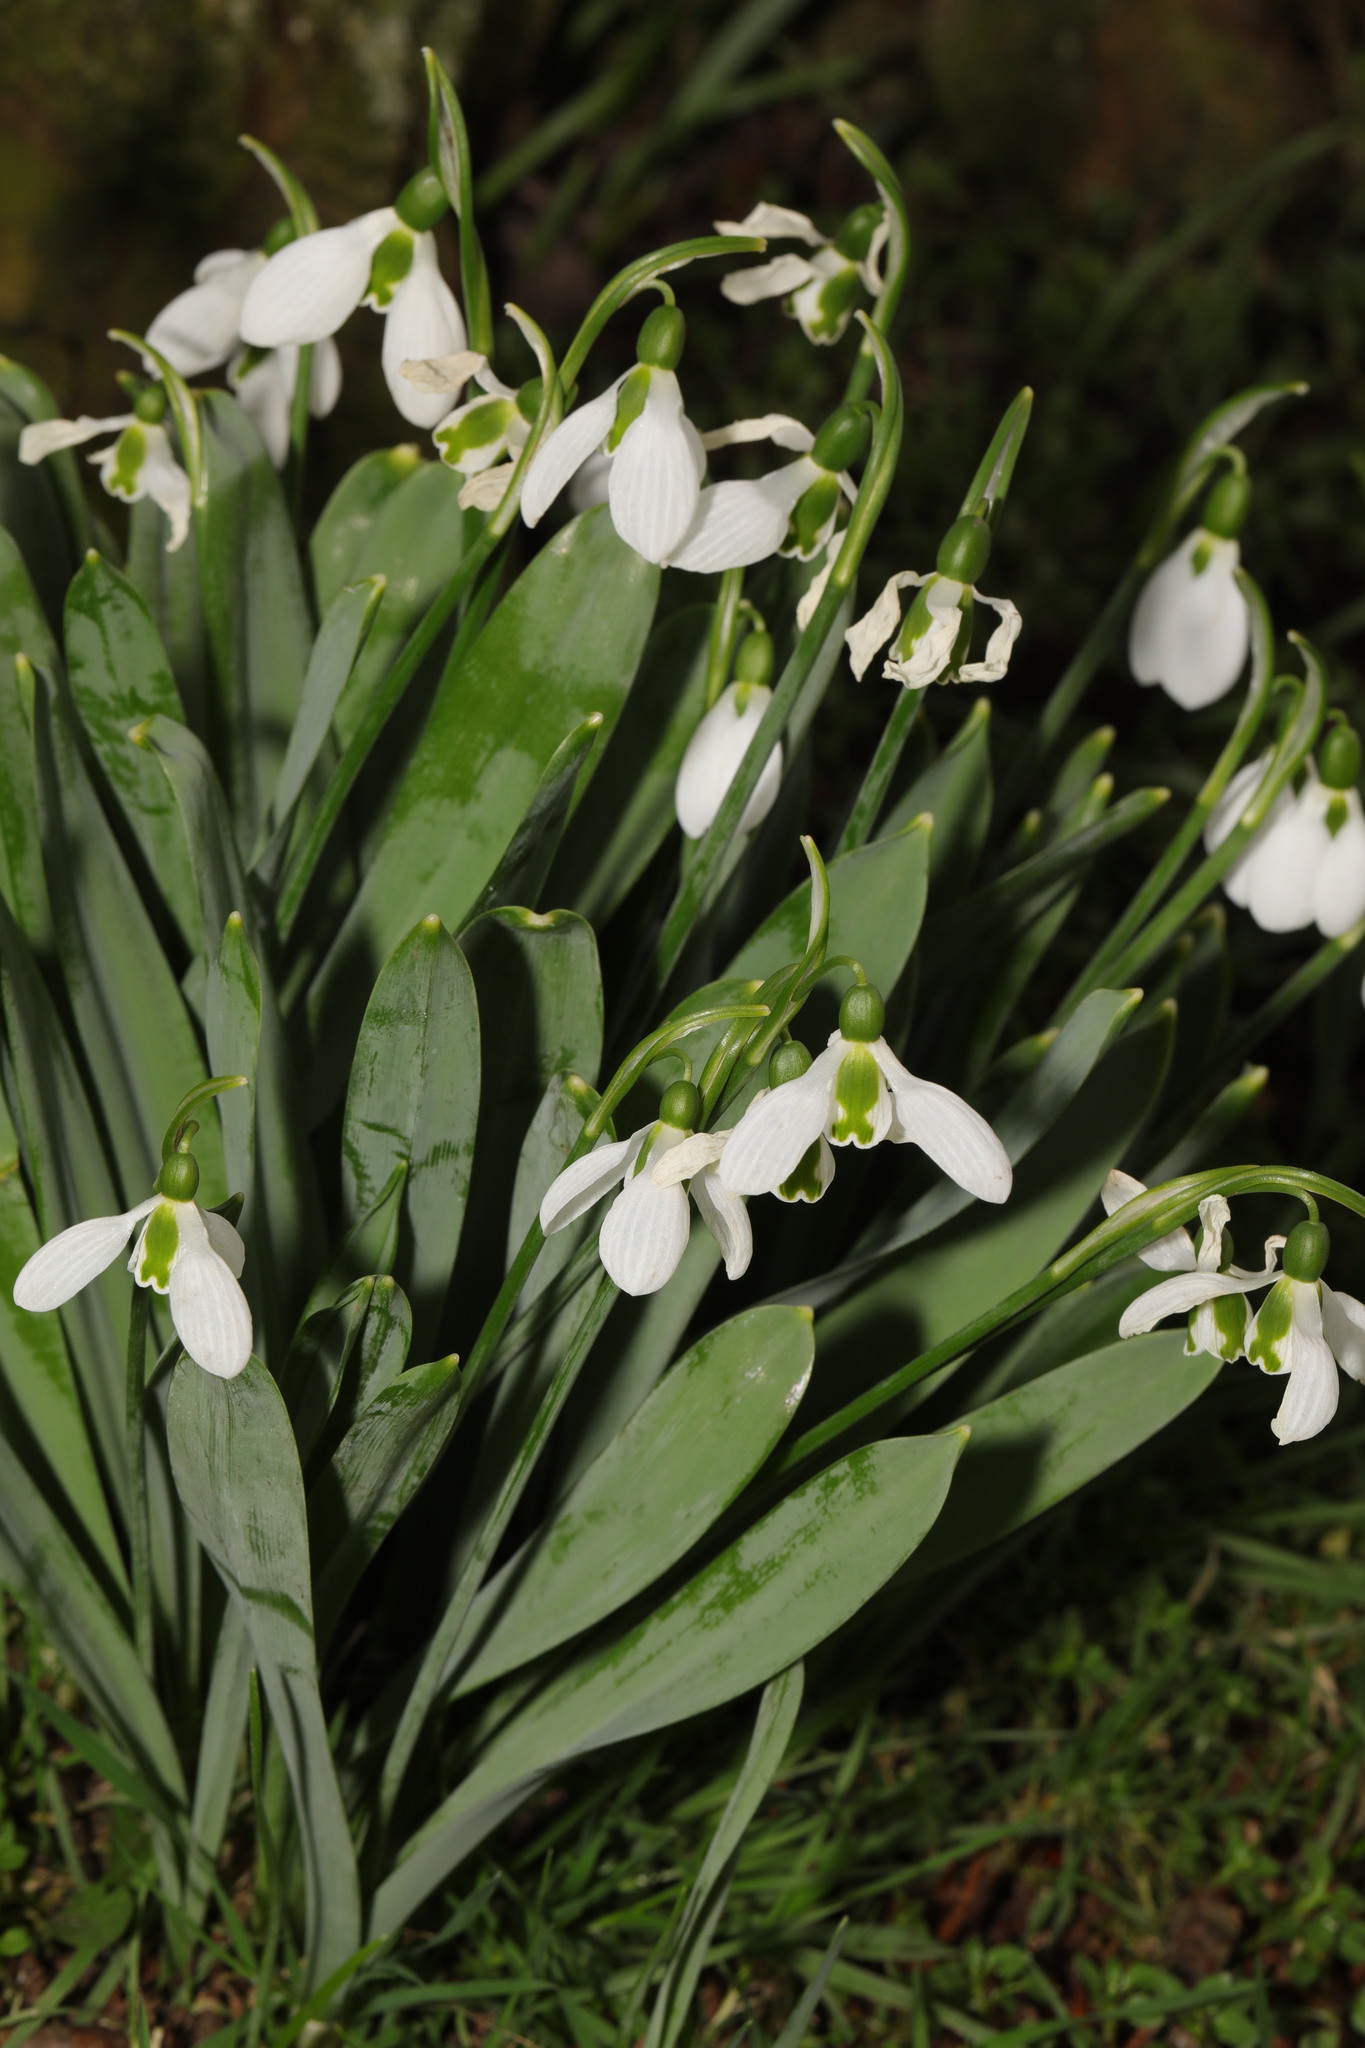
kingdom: Plantae
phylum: Tracheophyta
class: Liliopsida
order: Asparagales
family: Amaryllidaceae
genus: Galanthus
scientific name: Galanthus elwesii
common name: Greater snowdrop
